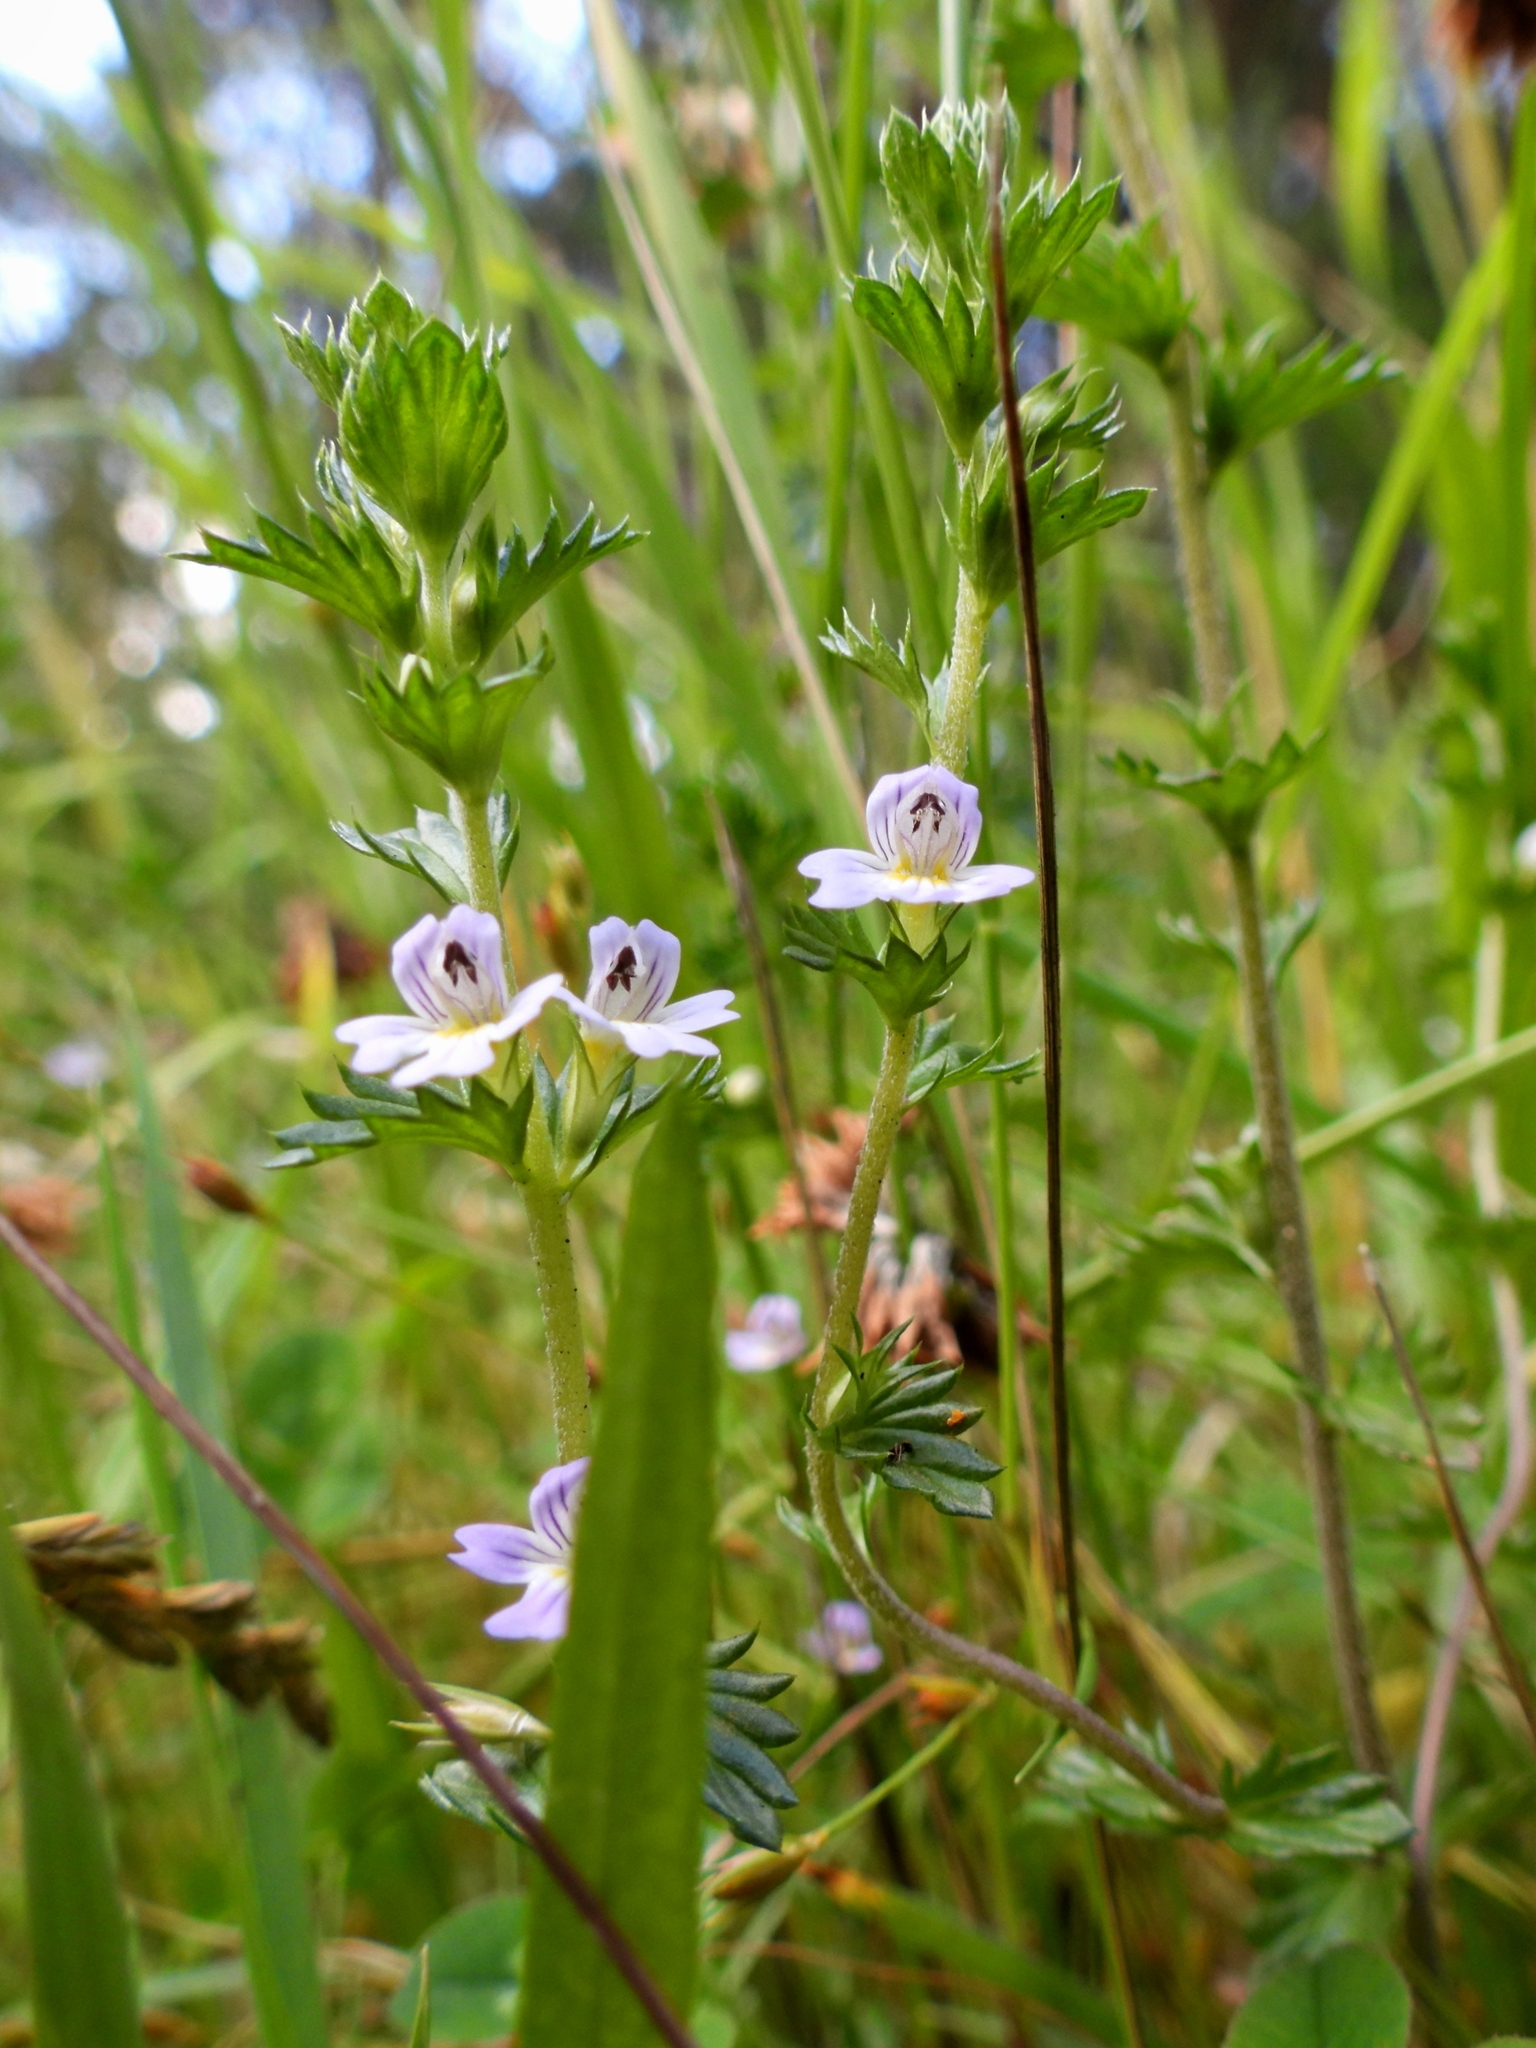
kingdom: Plantae
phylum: Tracheophyta
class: Magnoliopsida
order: Lamiales
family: Orobanchaceae
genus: Euphrasia
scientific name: Euphrasia nemorosa
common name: Common eyebright
